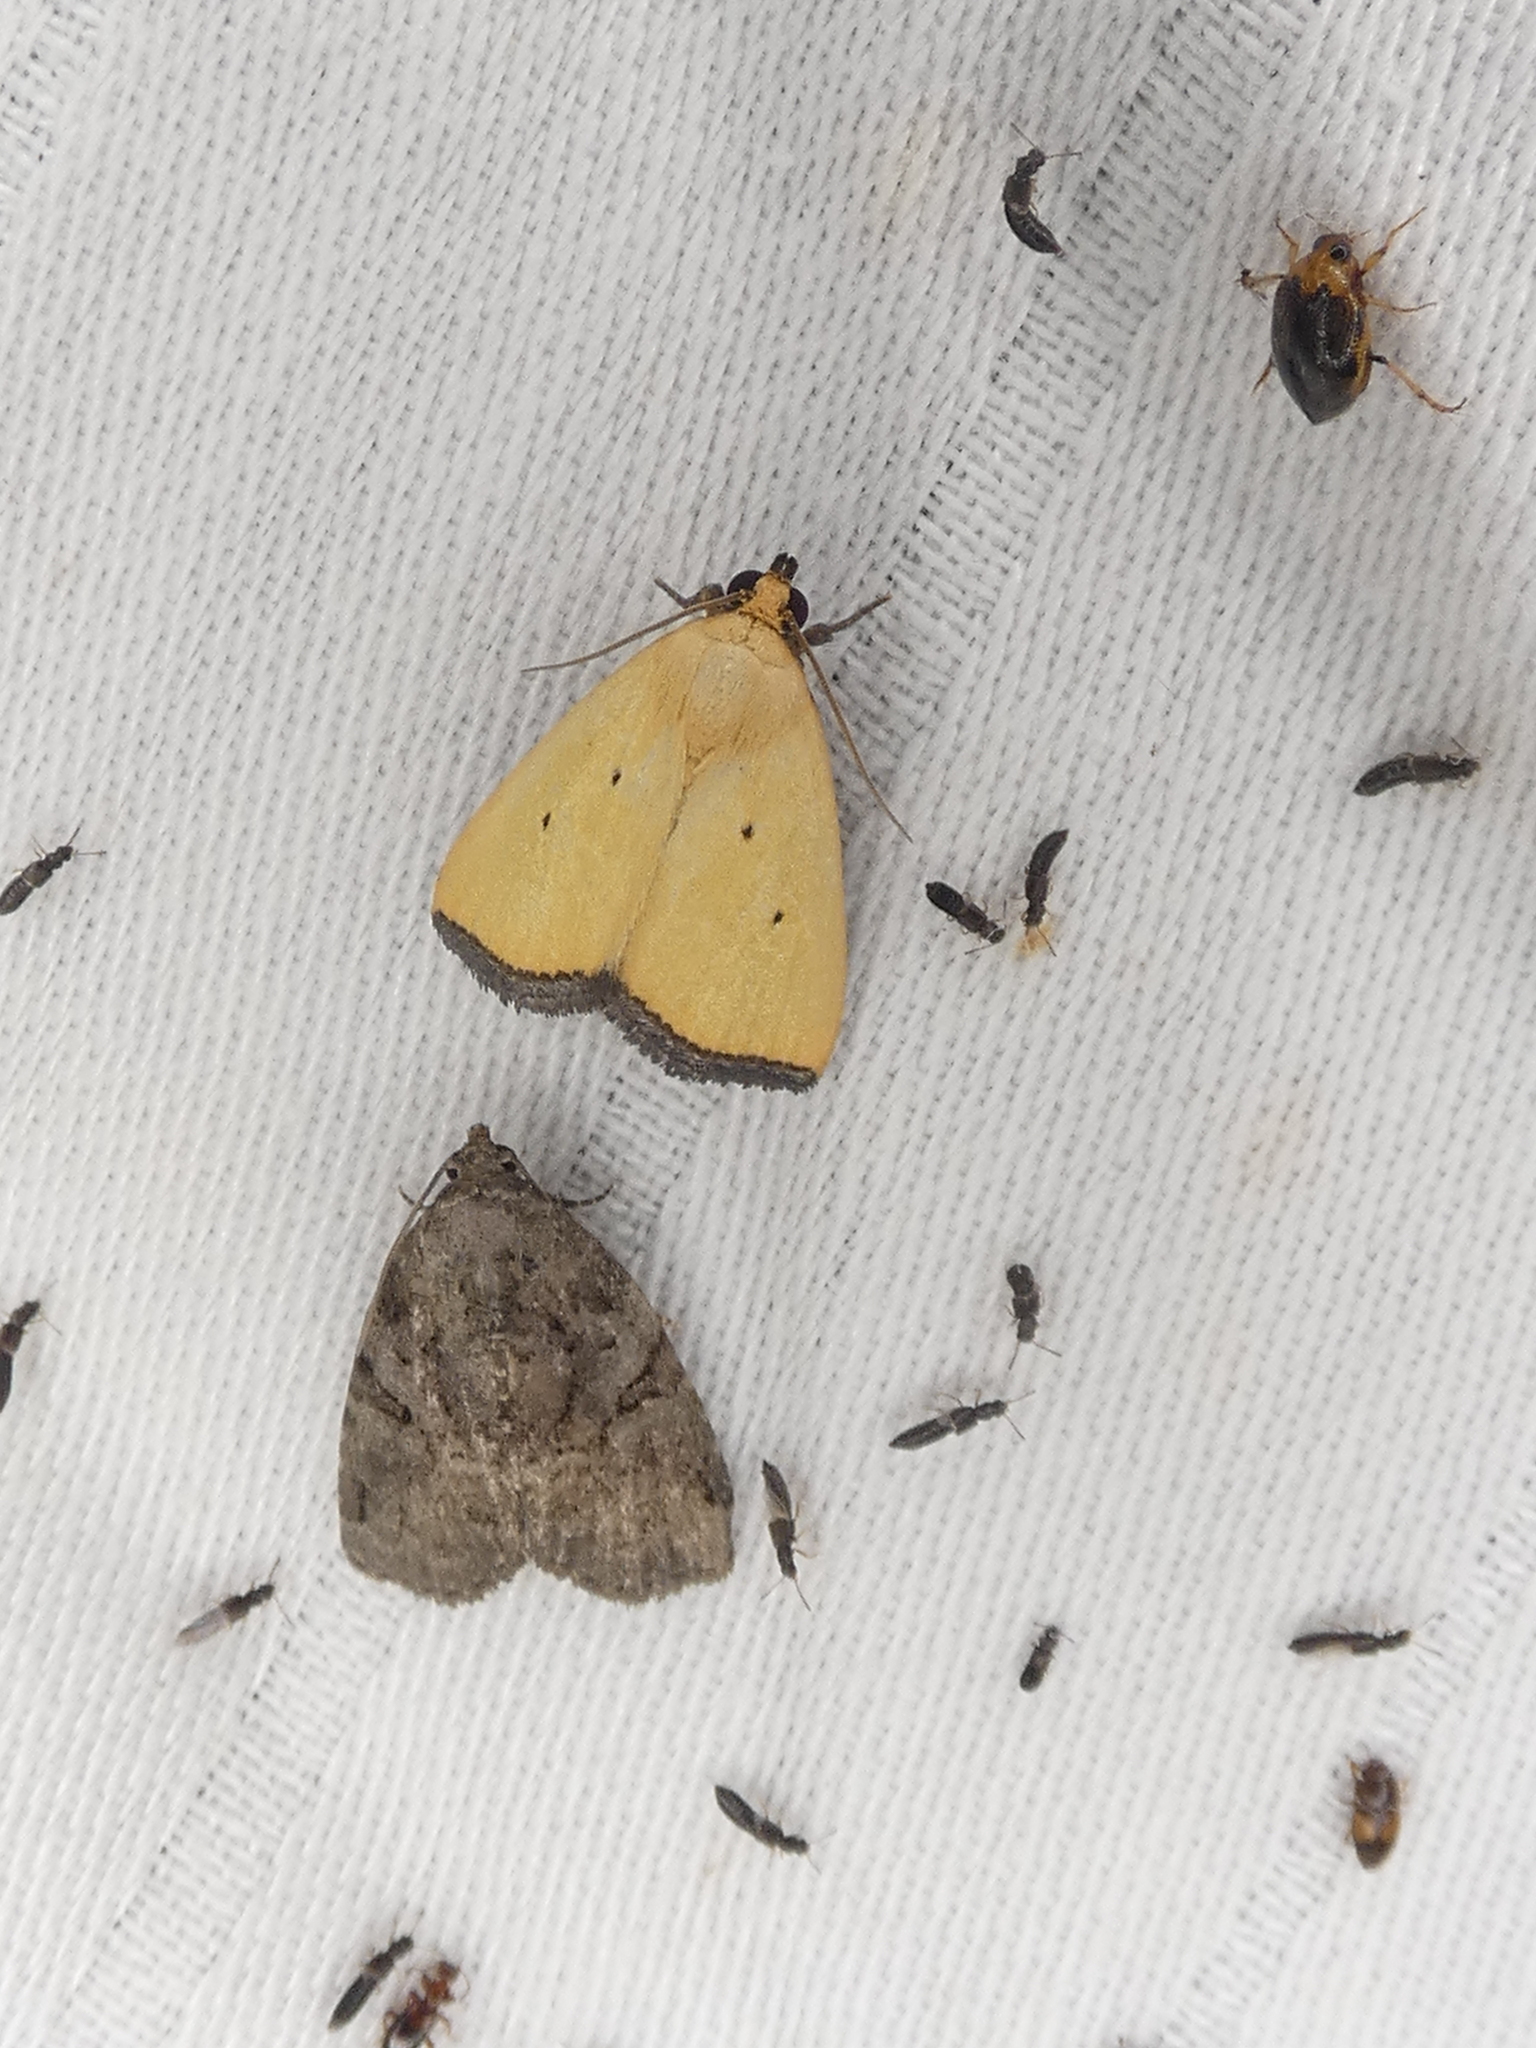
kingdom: Animalia
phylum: Arthropoda
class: Insecta
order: Lepidoptera
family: Noctuidae
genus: Marimatha
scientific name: Marimatha nigrofimbria
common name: Black-bordered lemon moth
